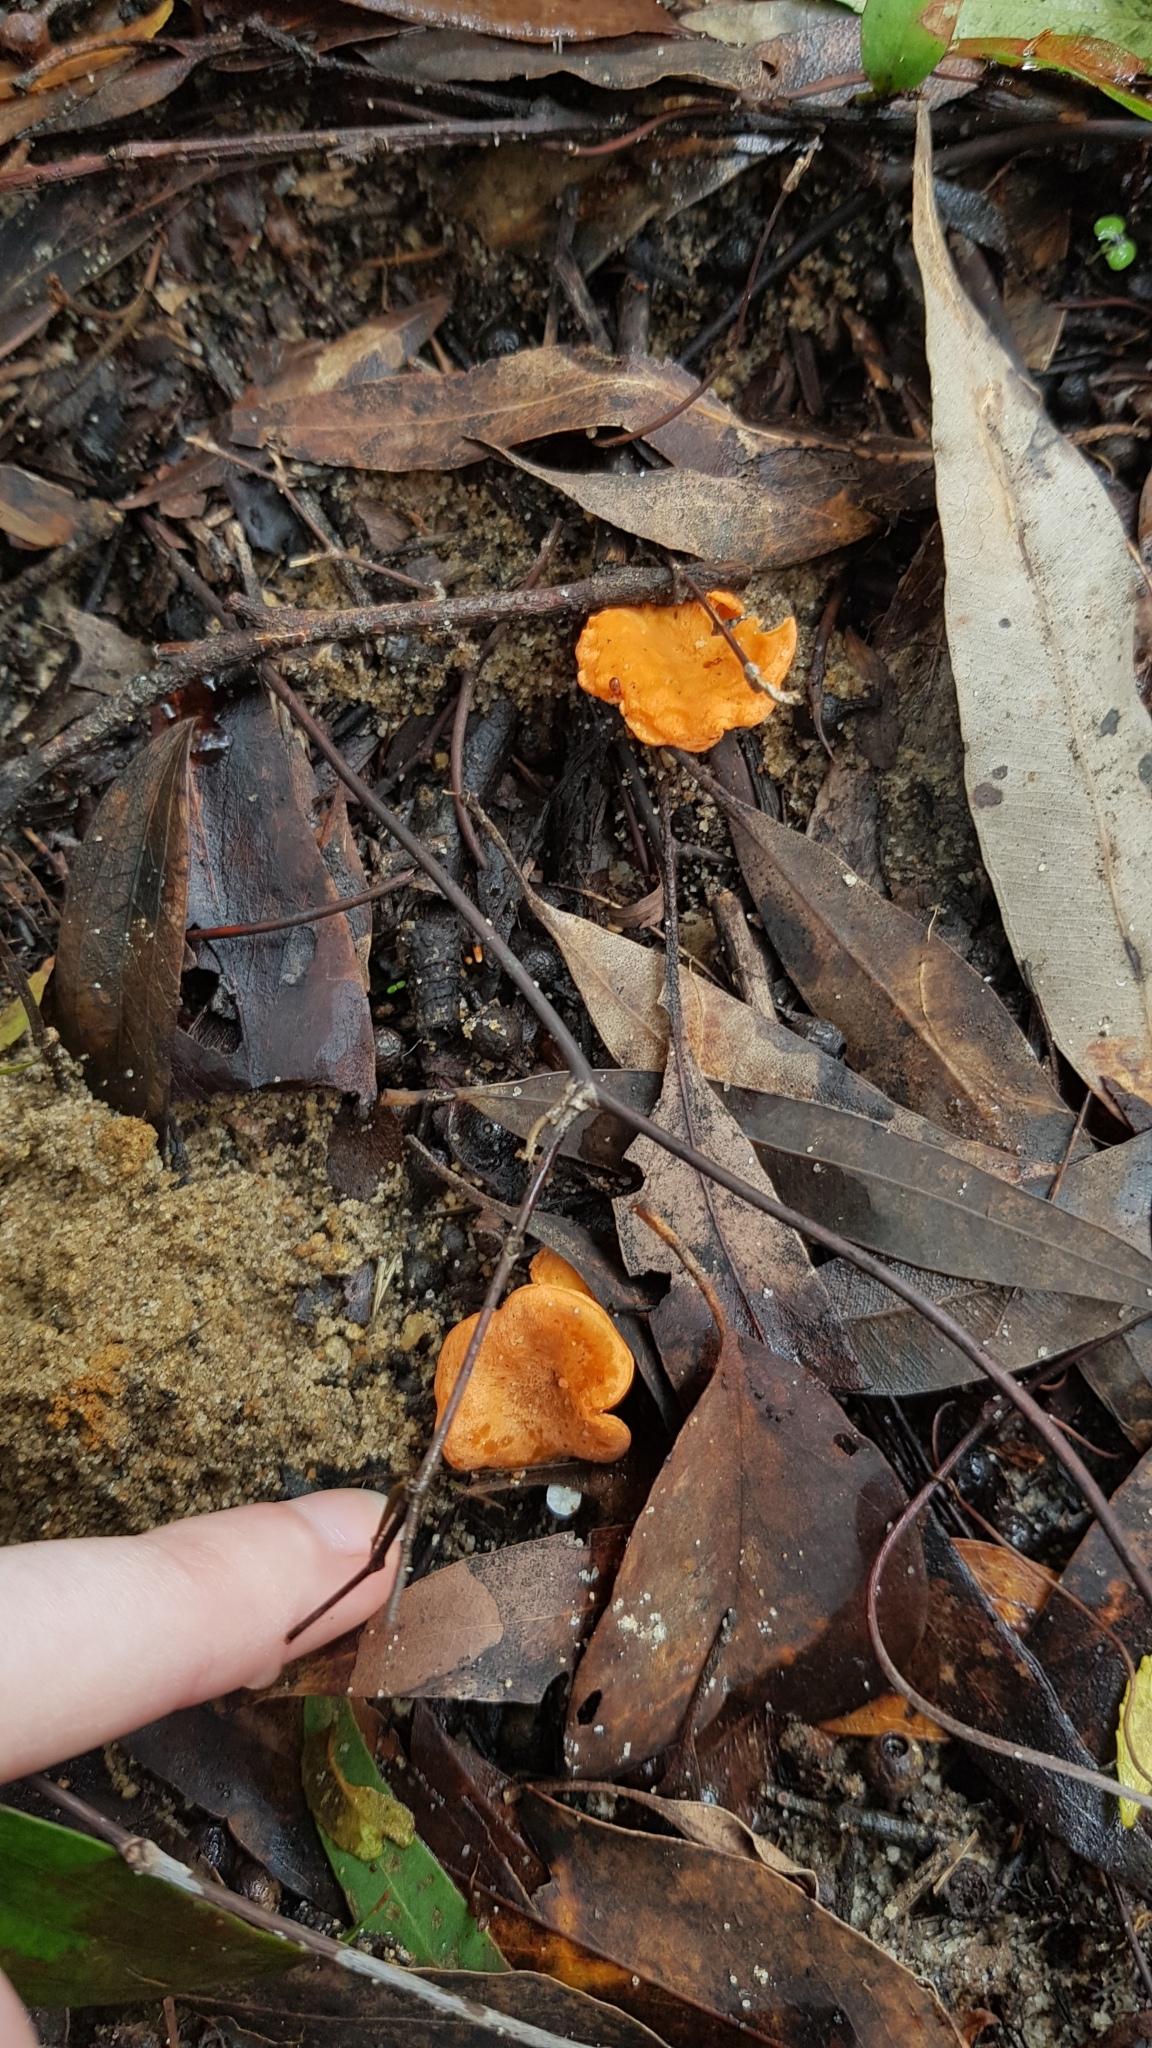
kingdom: Fungi
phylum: Basidiomycota
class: Agaricomycetes
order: Cantharellales
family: Hydnaceae
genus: Cantharellus
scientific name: Cantharellus
